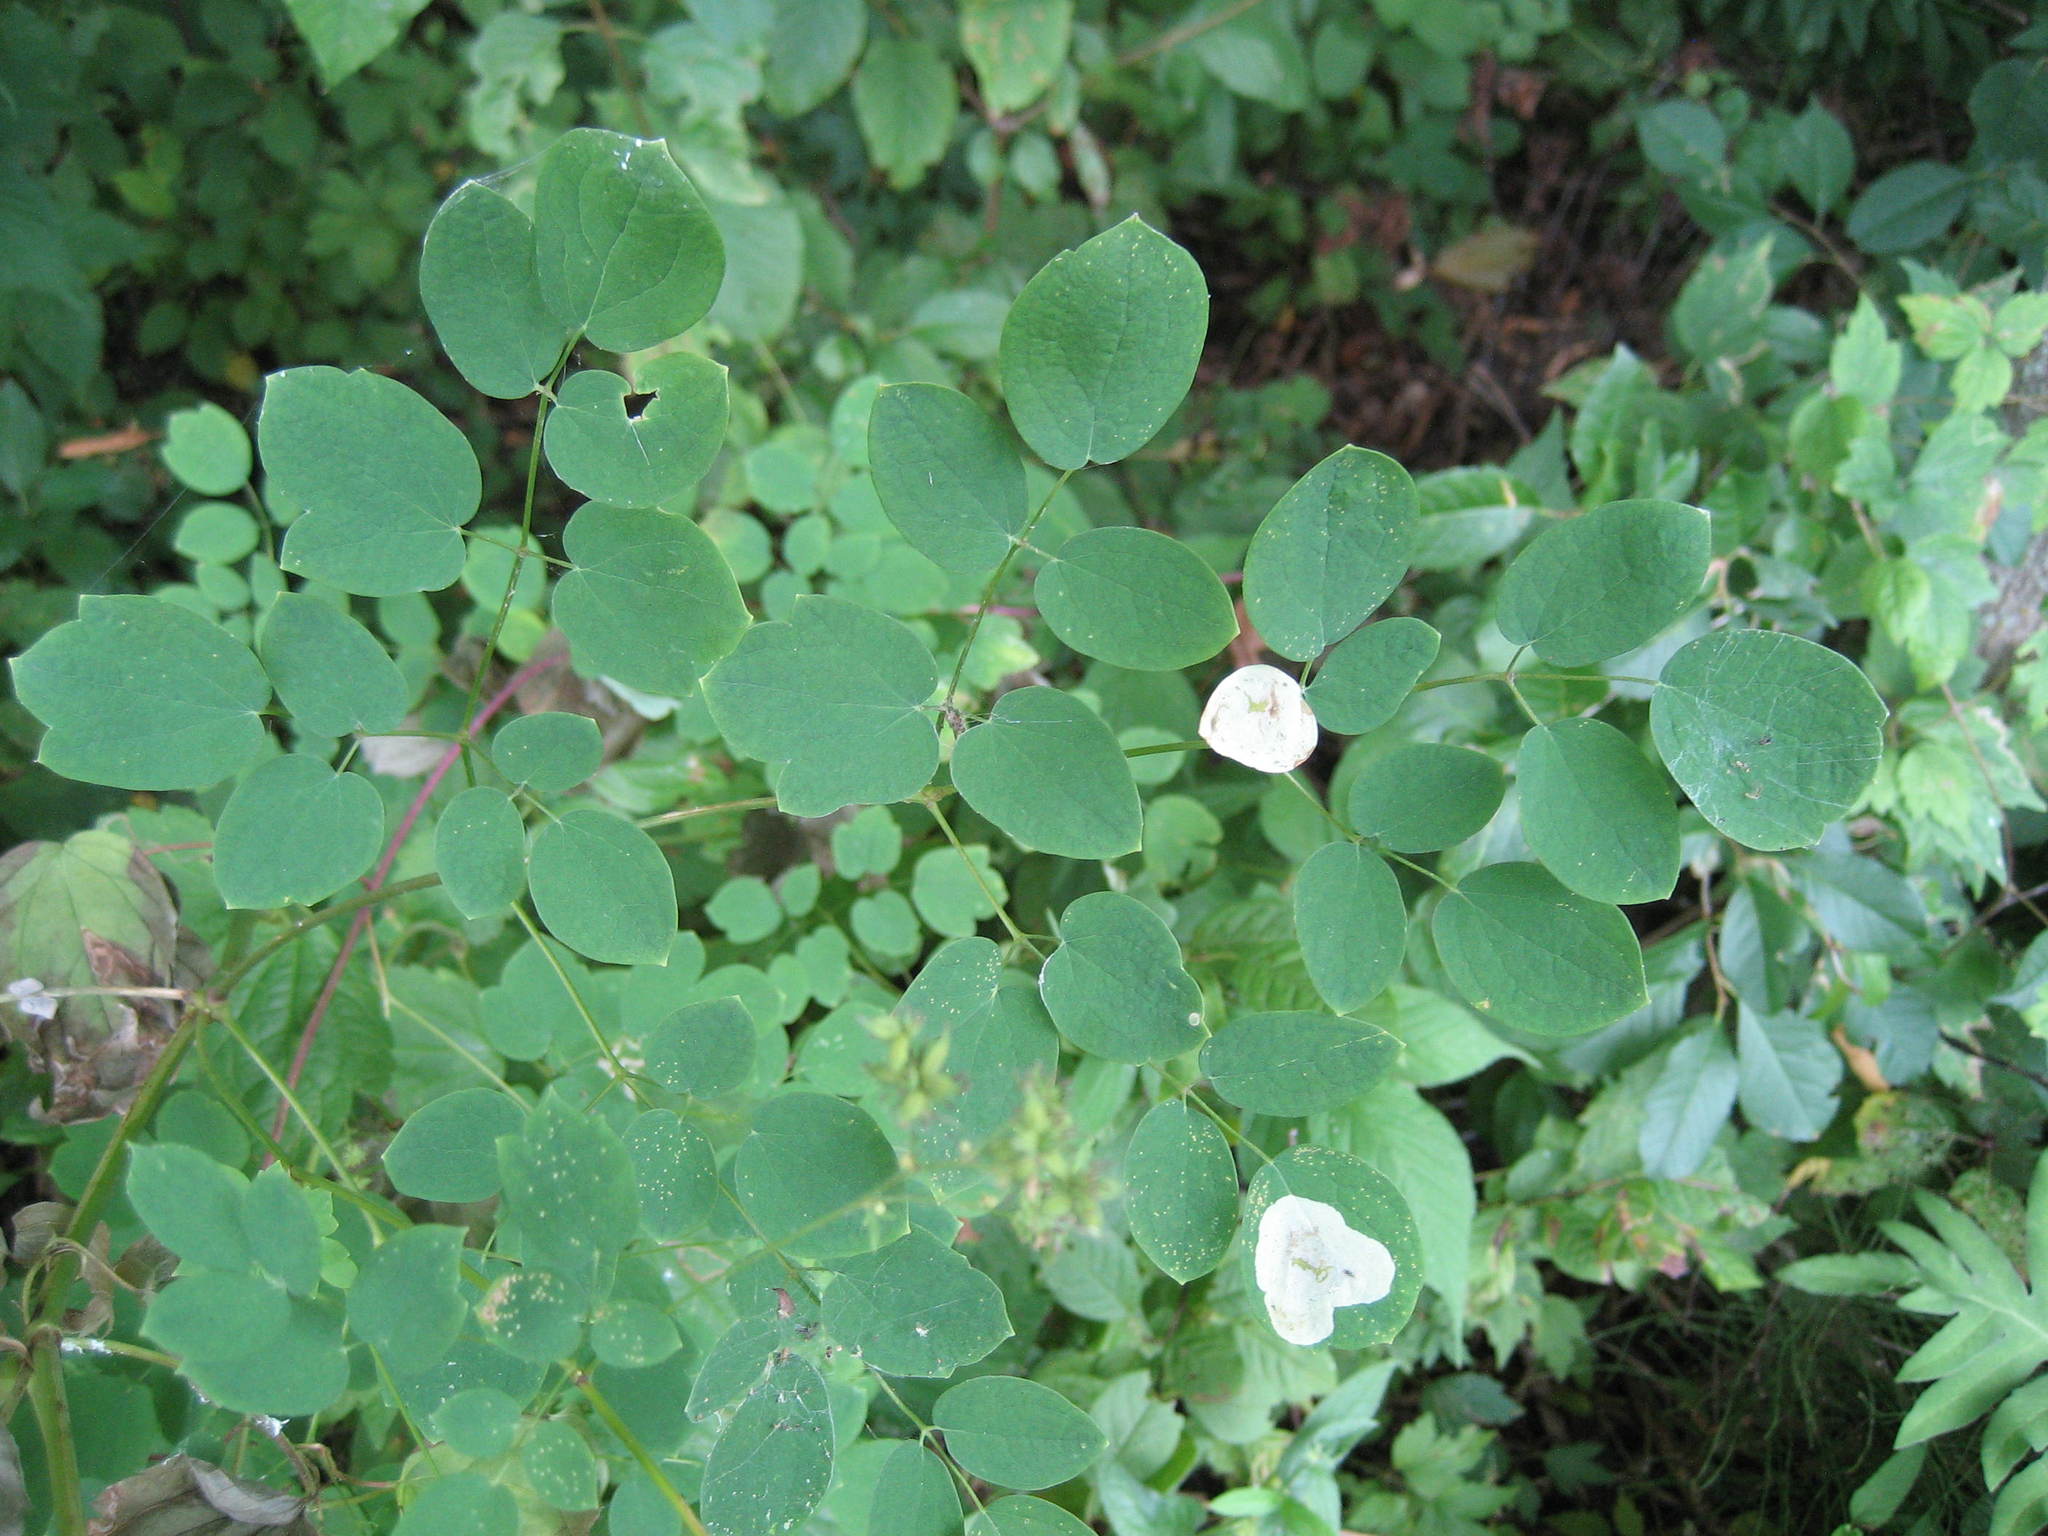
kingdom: Plantae
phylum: Tracheophyta
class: Magnoliopsida
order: Ranunculales
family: Ranunculaceae
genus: Thalictrum
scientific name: Thalictrum pubescens
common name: King-of-the-meadow
